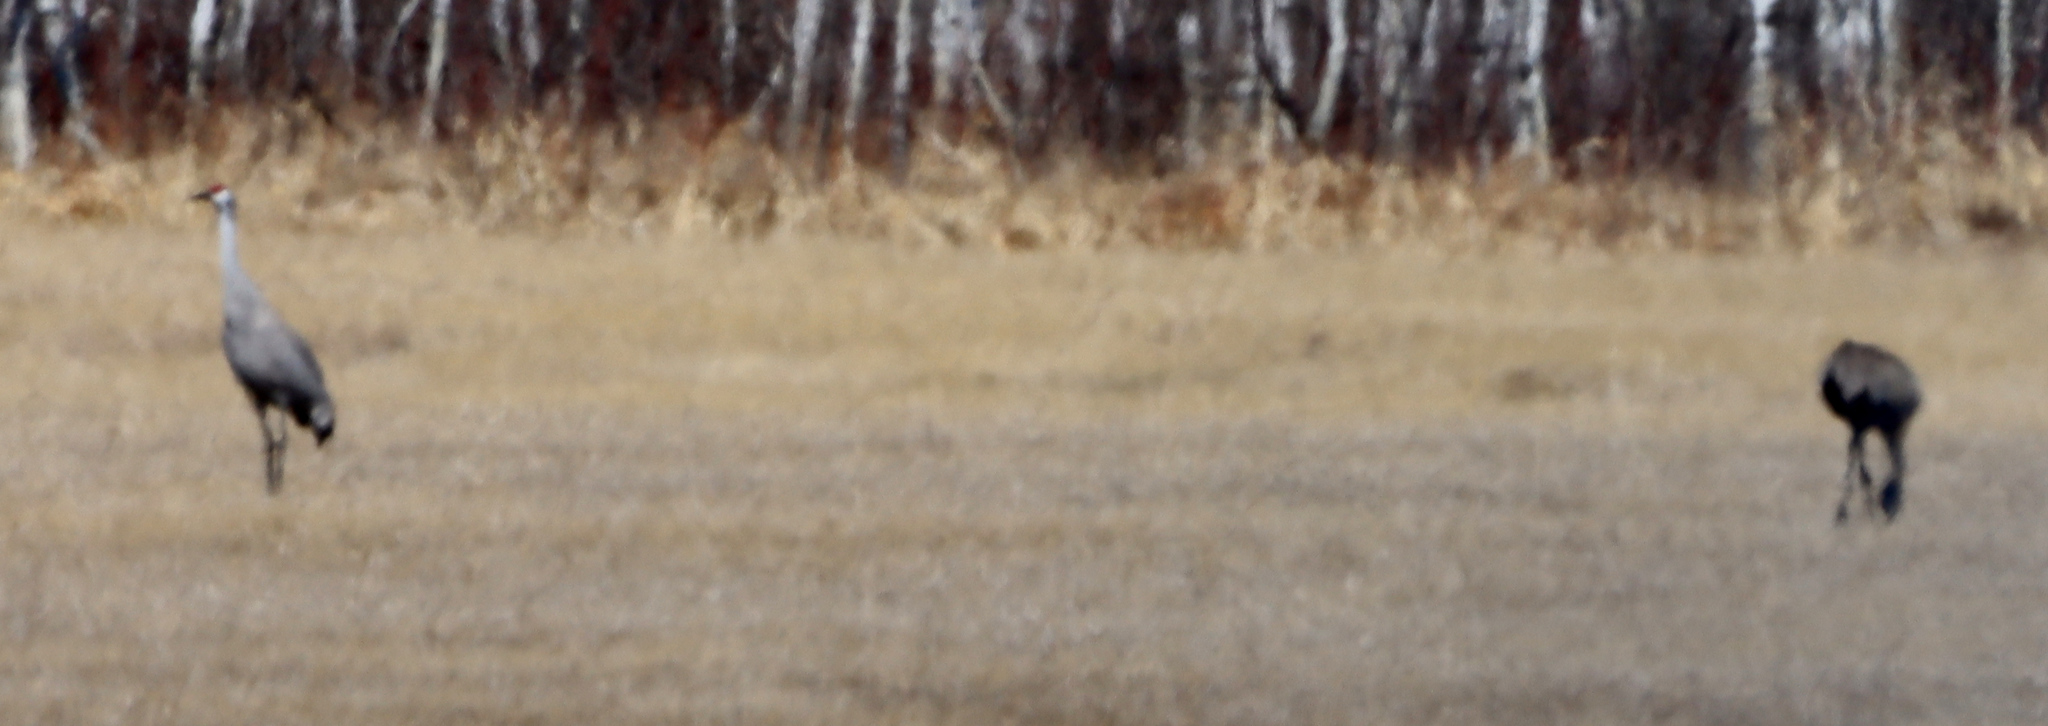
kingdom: Animalia
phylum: Chordata
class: Aves
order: Gruiformes
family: Gruidae
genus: Grus
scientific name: Grus canadensis
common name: Sandhill crane
